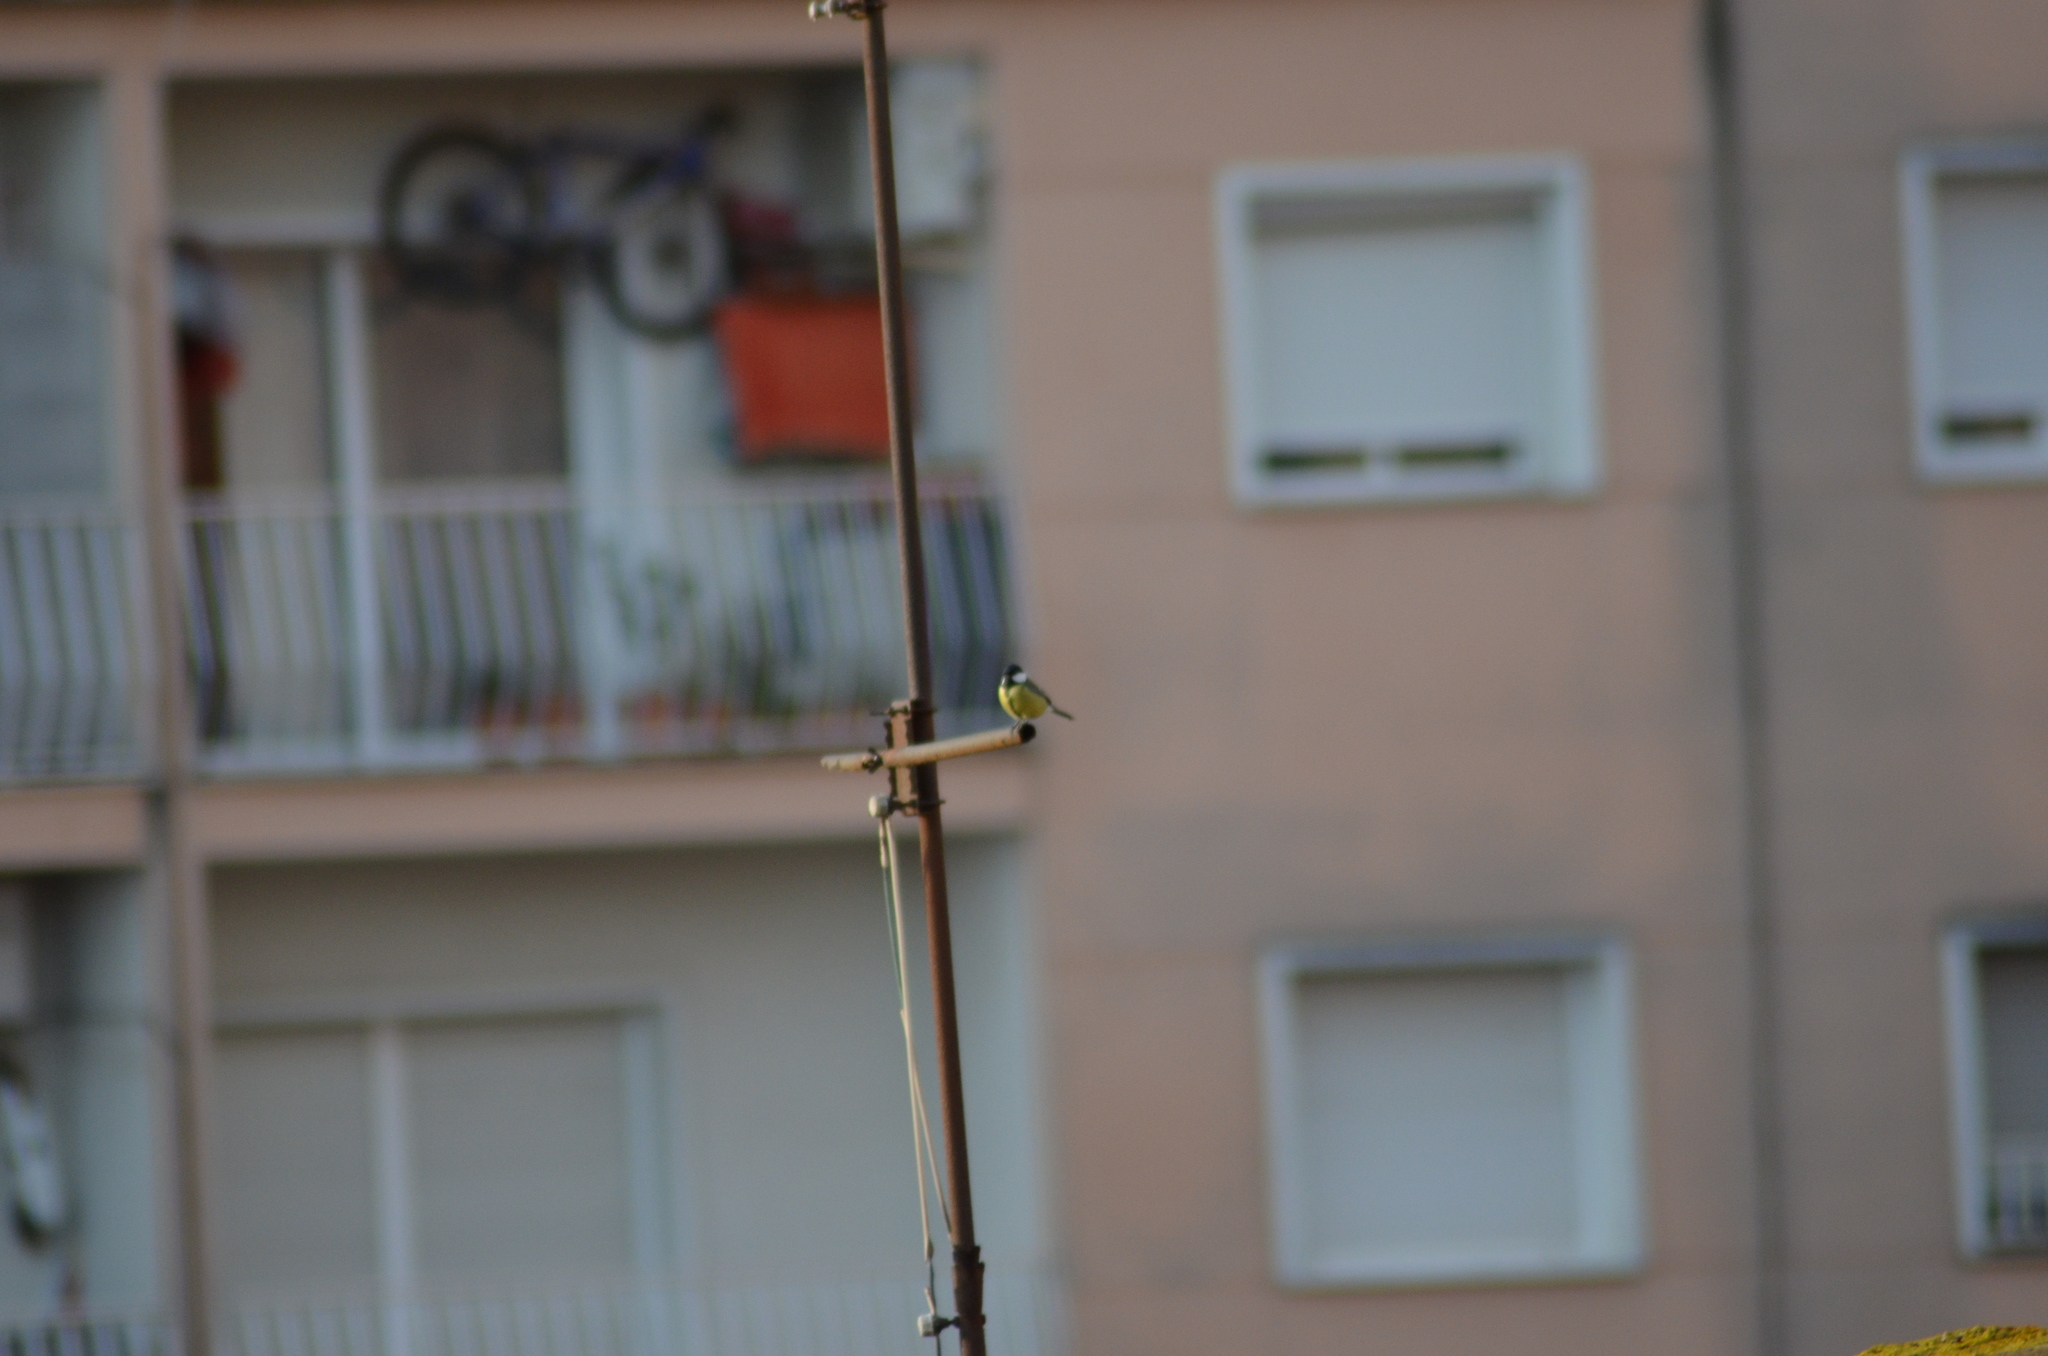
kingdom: Animalia
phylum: Chordata
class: Aves
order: Passeriformes
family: Paridae
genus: Parus
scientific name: Parus major
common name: Great tit
